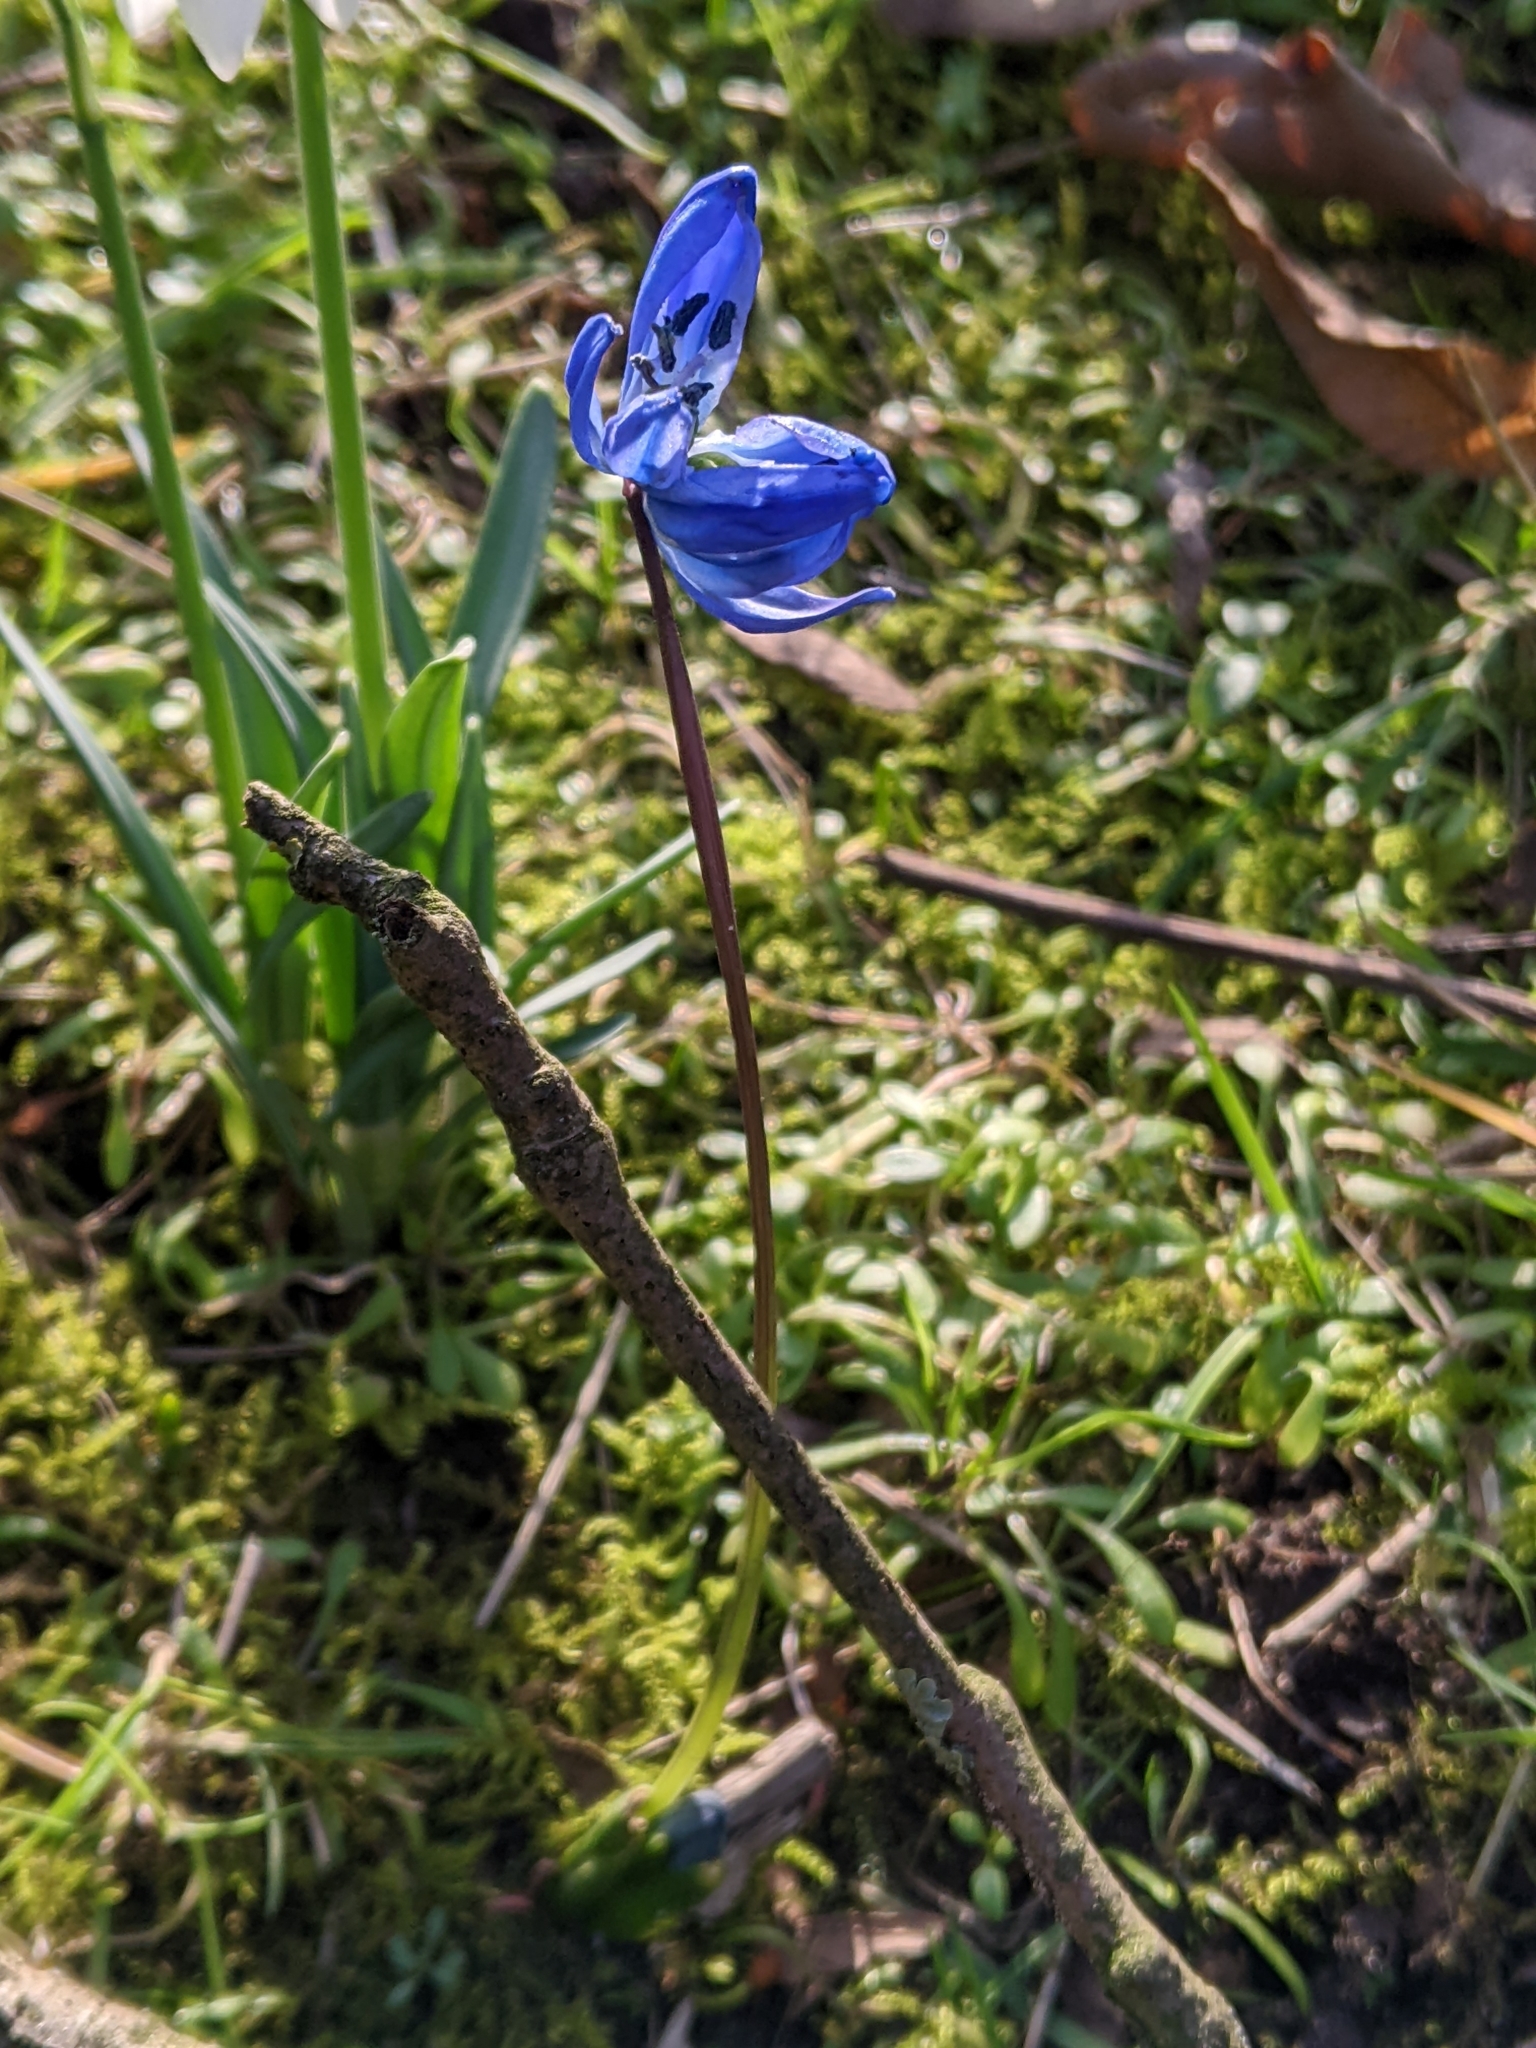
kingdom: Plantae
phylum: Tracheophyta
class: Liliopsida
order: Asparagales
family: Asparagaceae
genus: Scilla
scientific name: Scilla siberica
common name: Siberian squill
